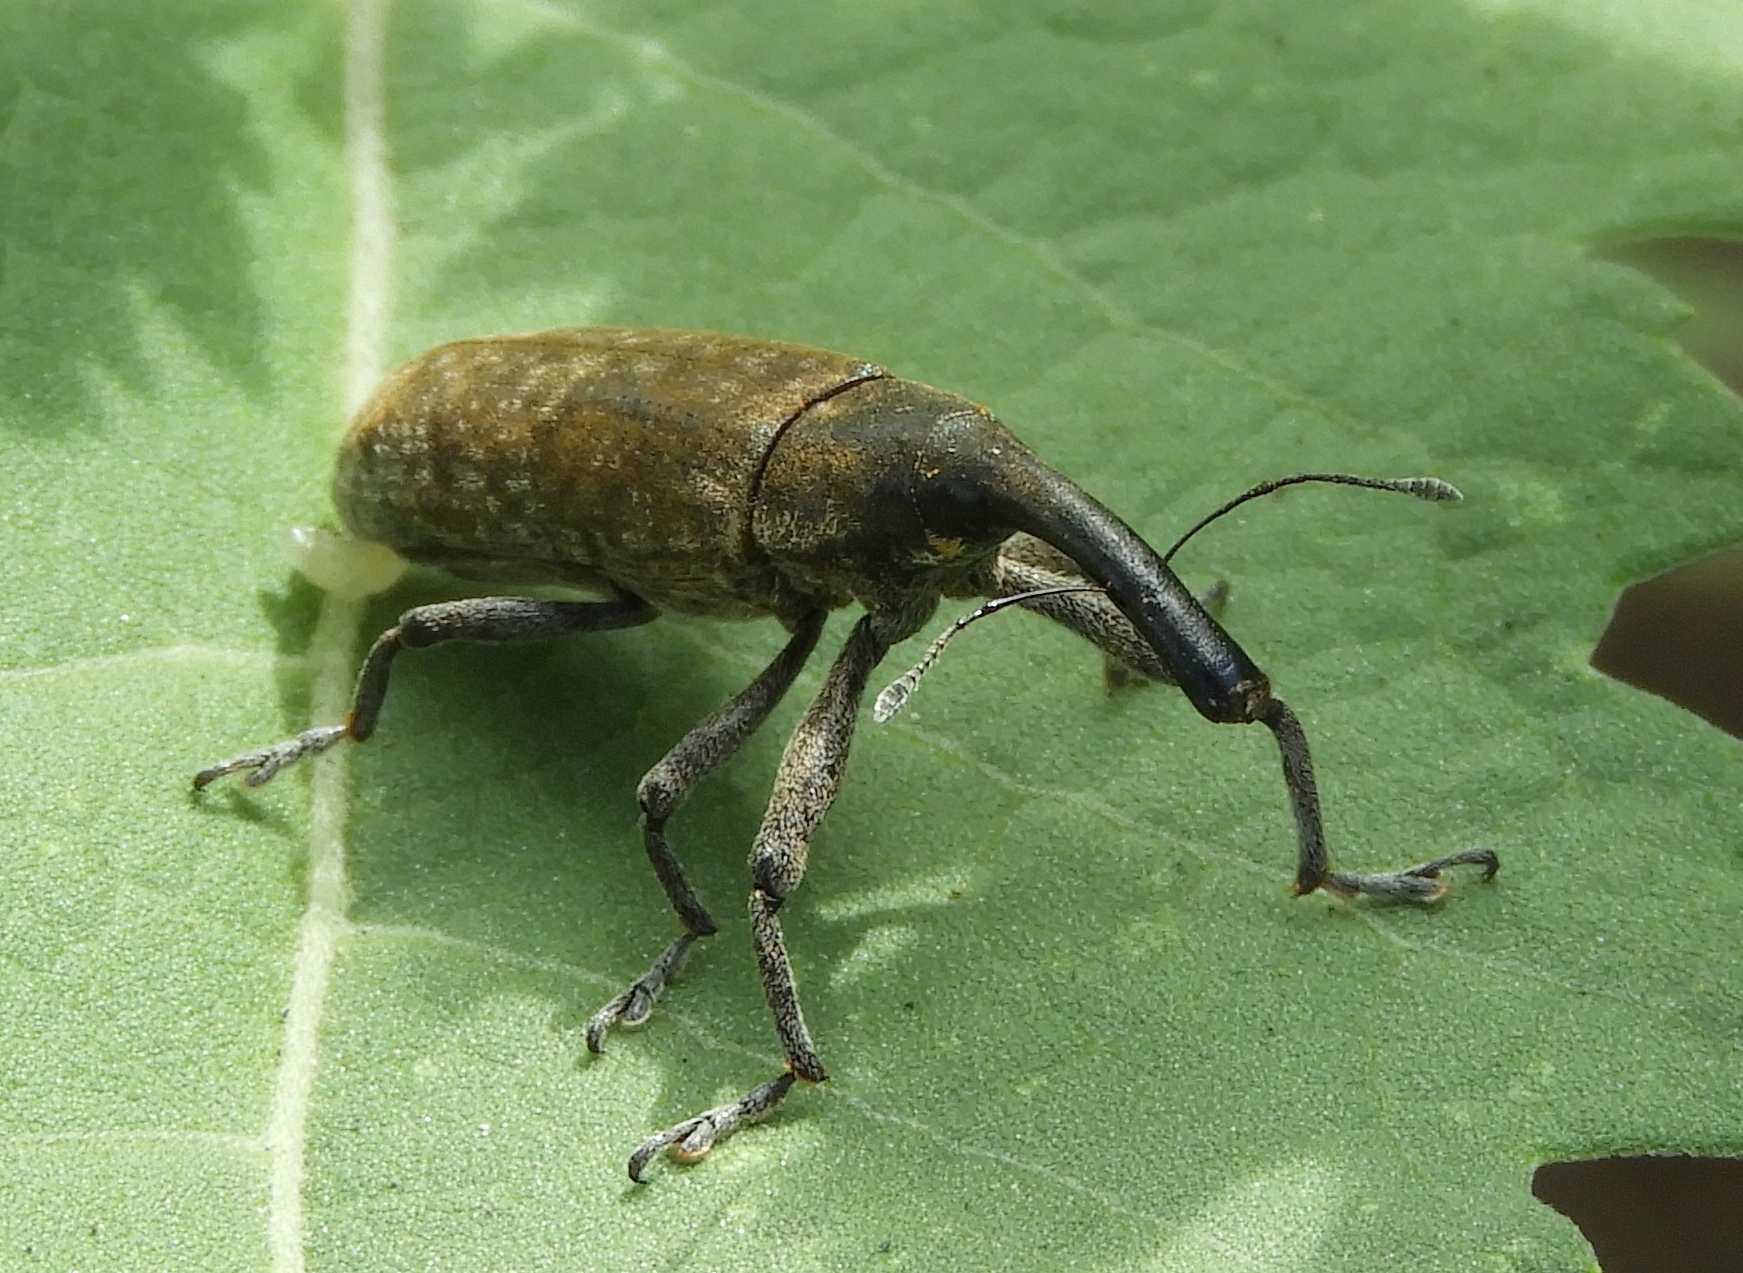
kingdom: Animalia
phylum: Arthropoda
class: Insecta
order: Coleoptera
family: Curculionidae
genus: Lixus
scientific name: Lixus
